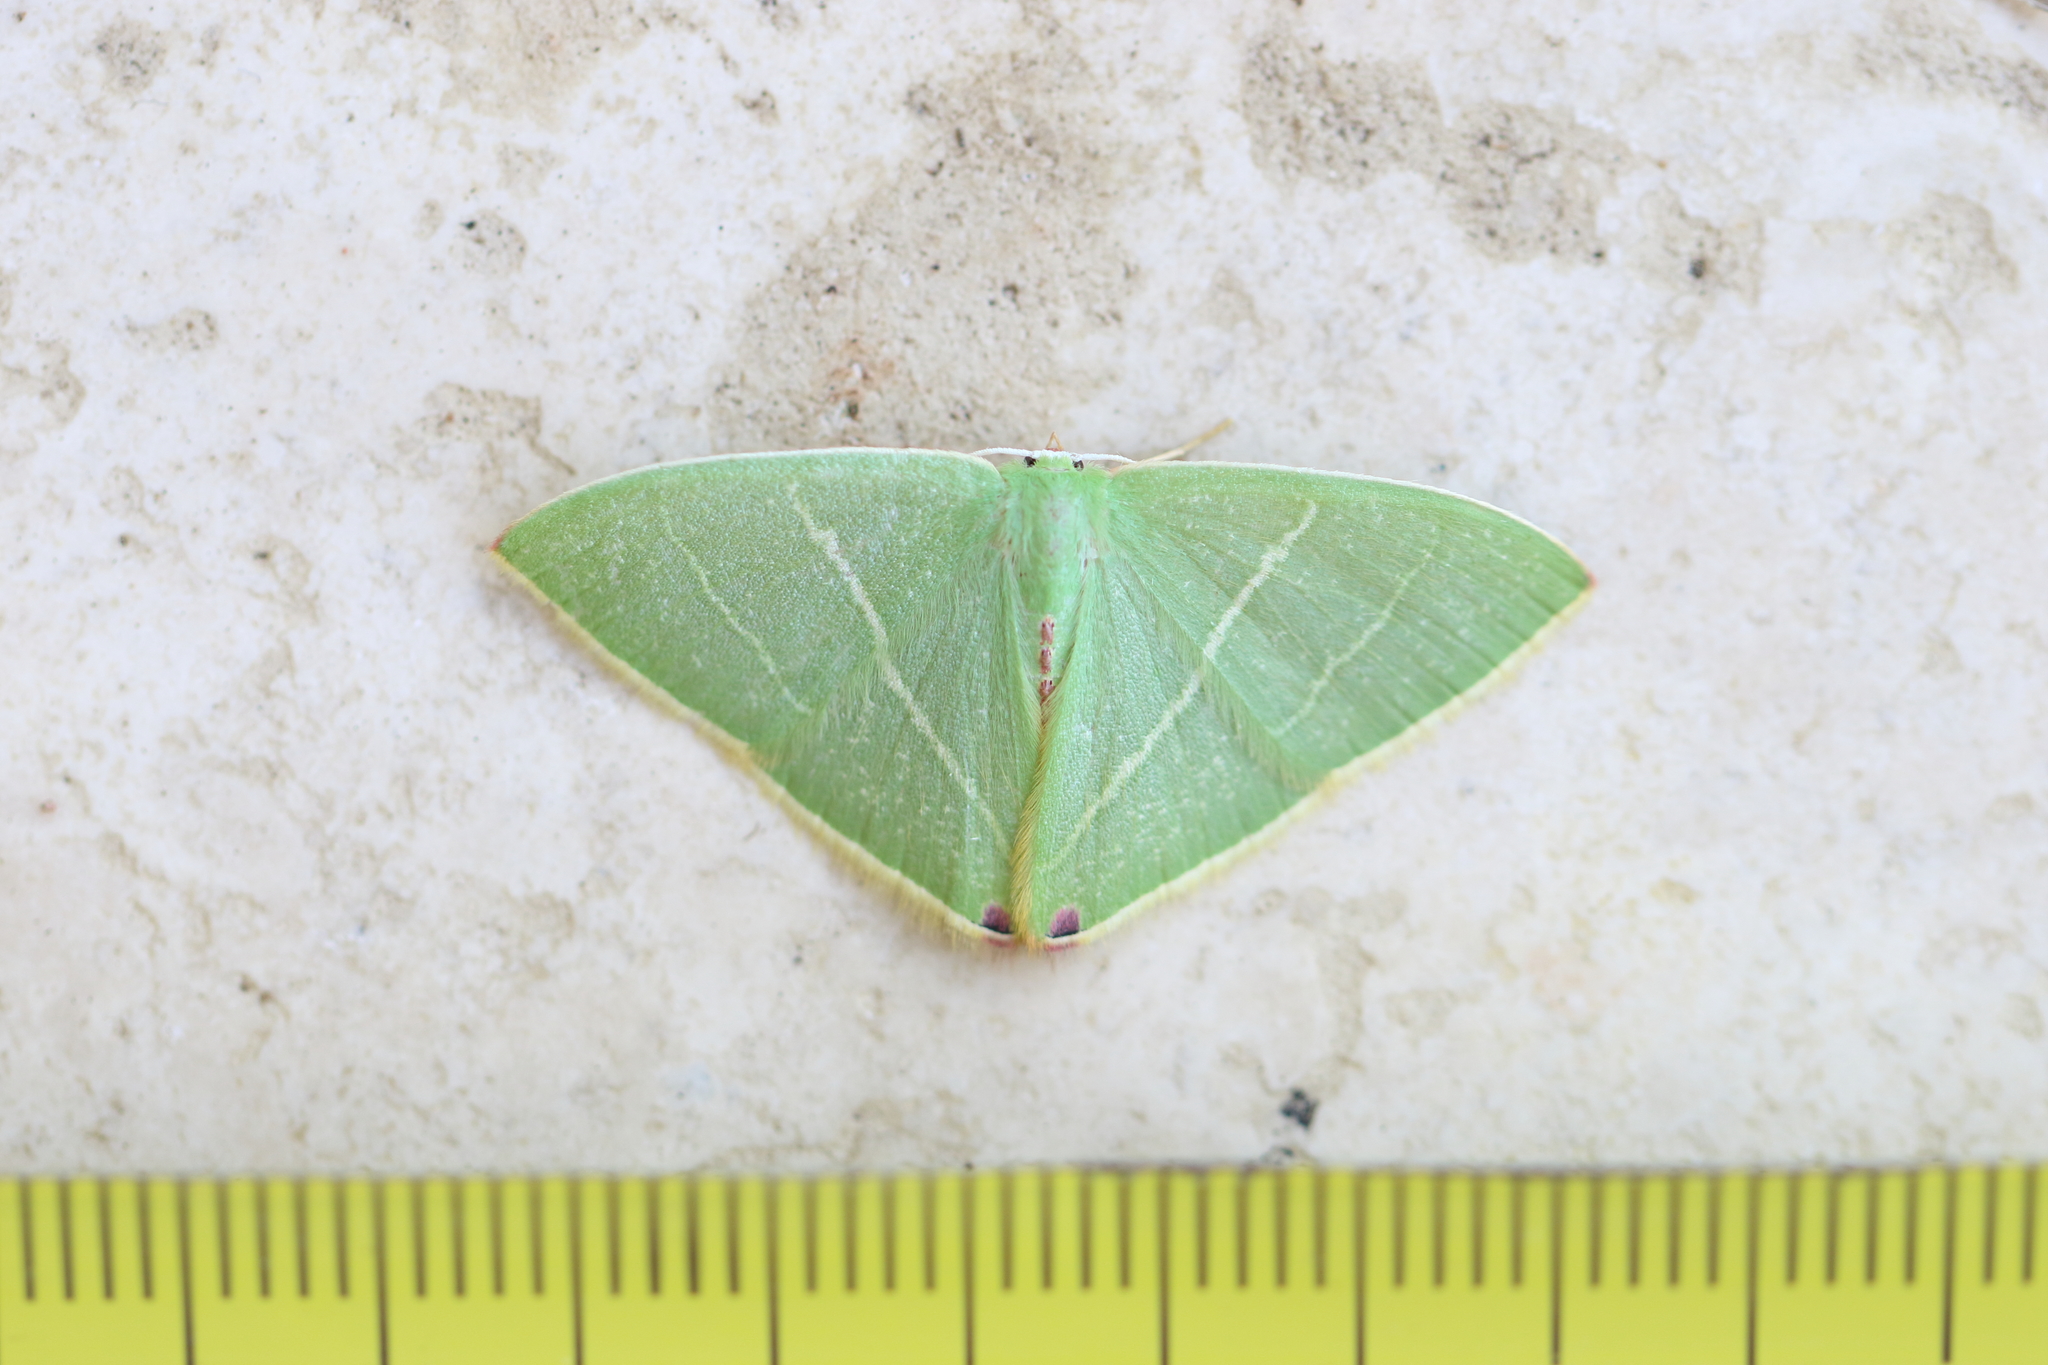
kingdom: Animalia
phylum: Arthropoda
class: Insecta
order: Lepidoptera
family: Geometridae
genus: Urolitha
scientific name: Urolitha bipunctifera
